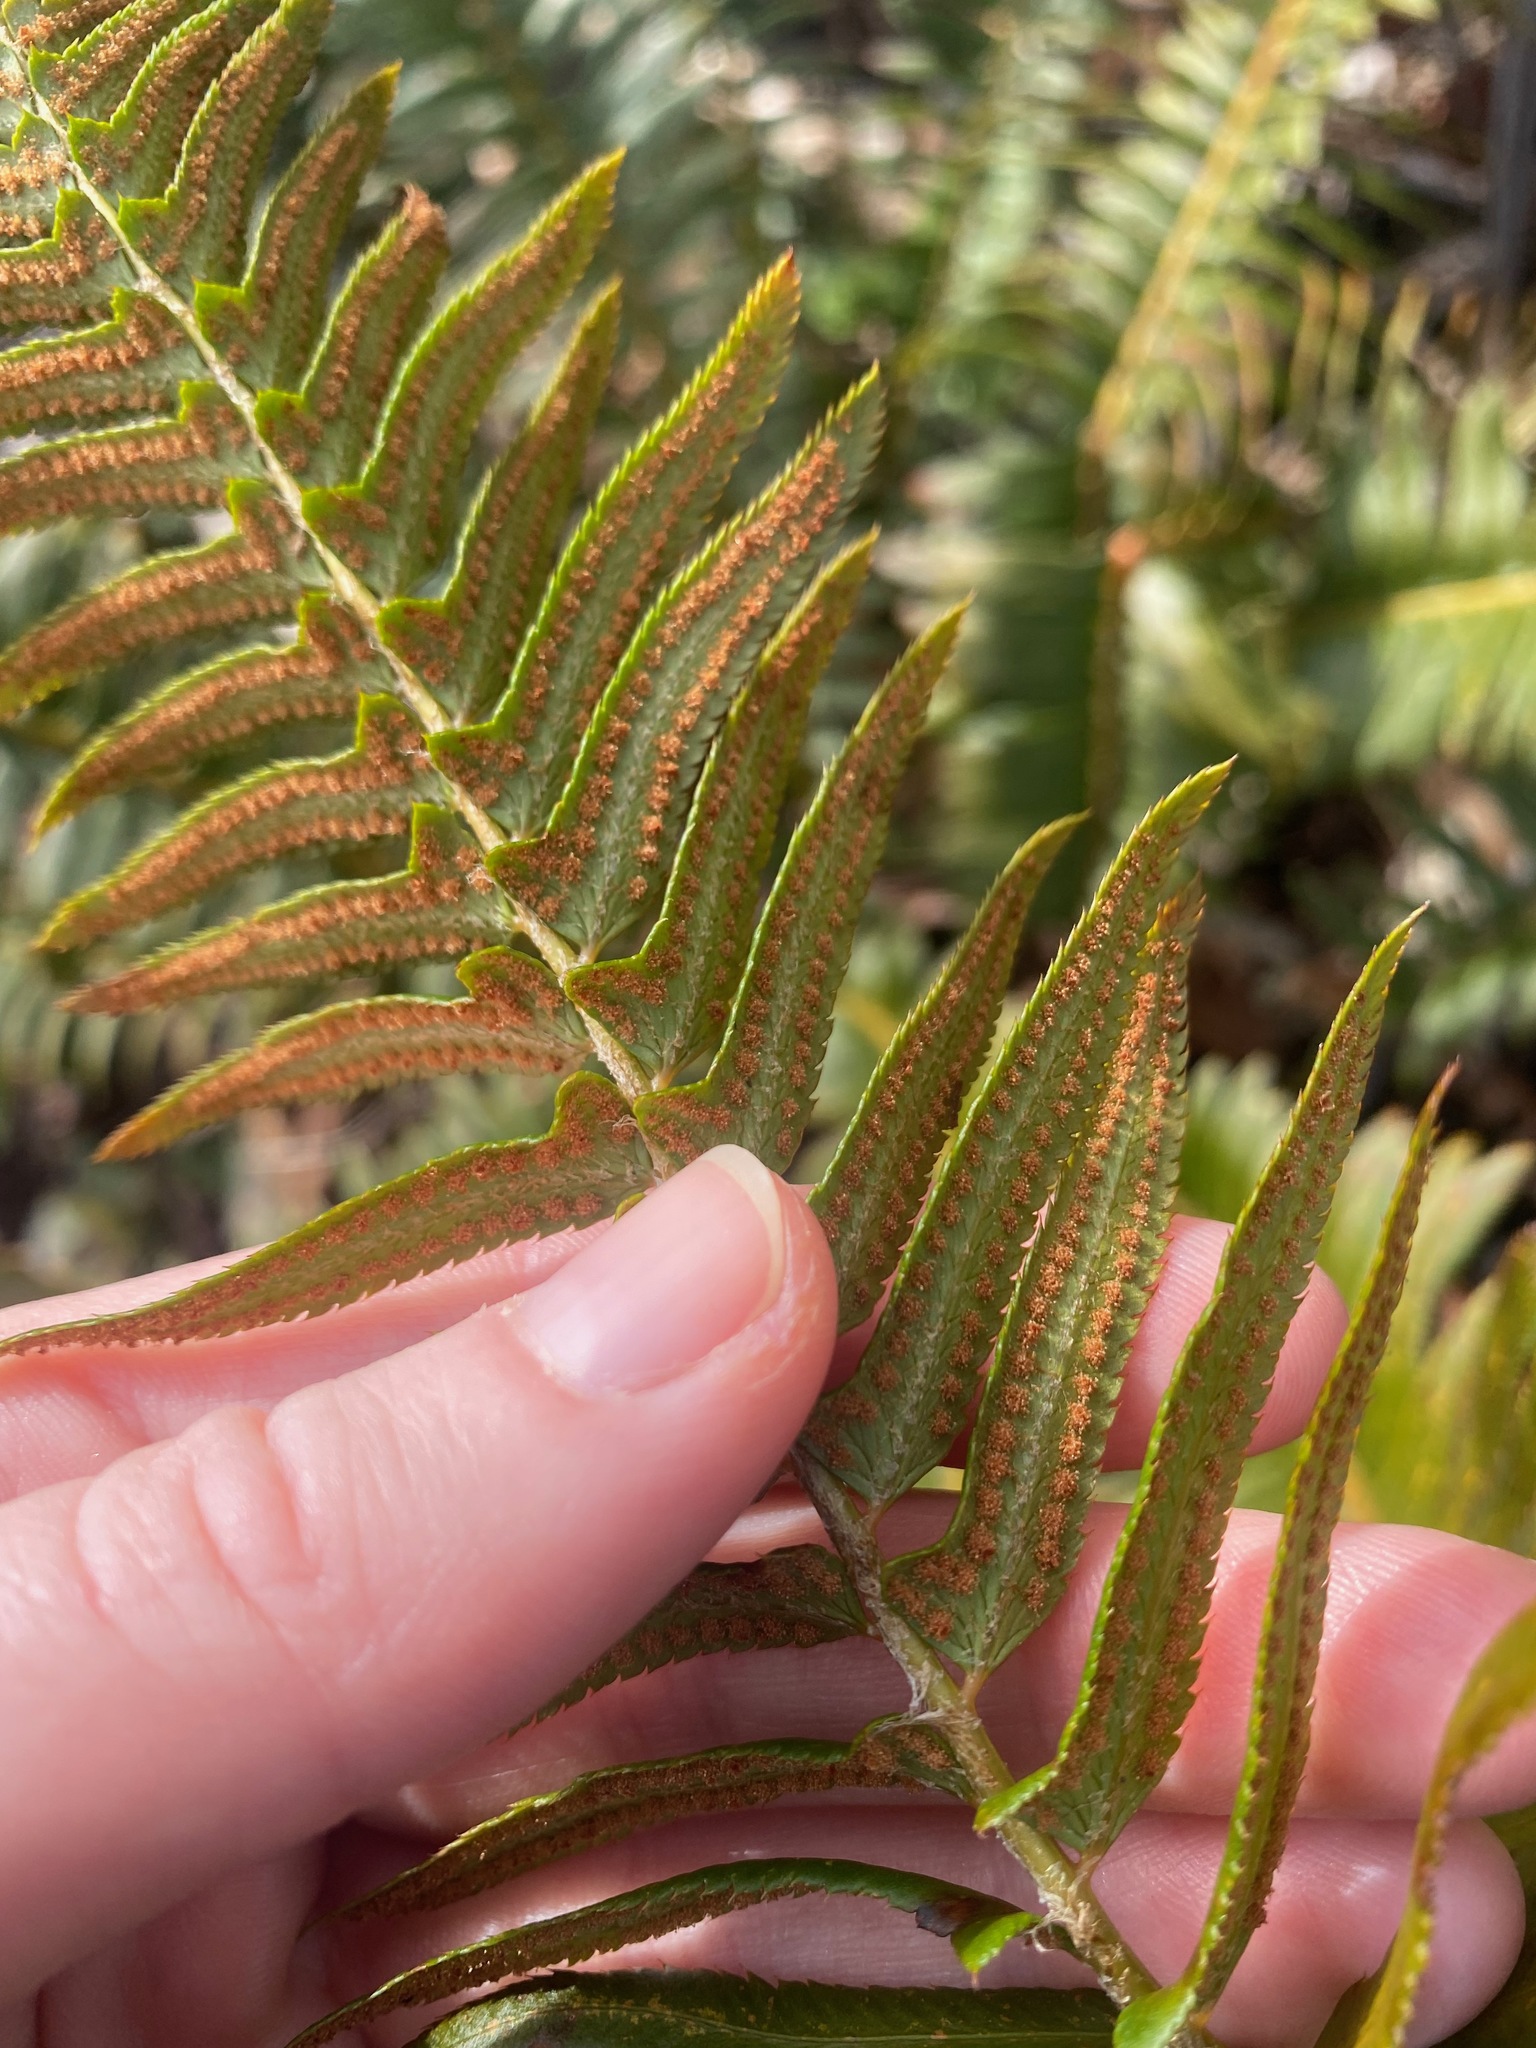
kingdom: Plantae
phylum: Tracheophyta
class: Polypodiopsida
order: Polypodiales
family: Dryopteridaceae
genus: Polystichum
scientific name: Polystichum imbricans
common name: Dwarf western sword fern
